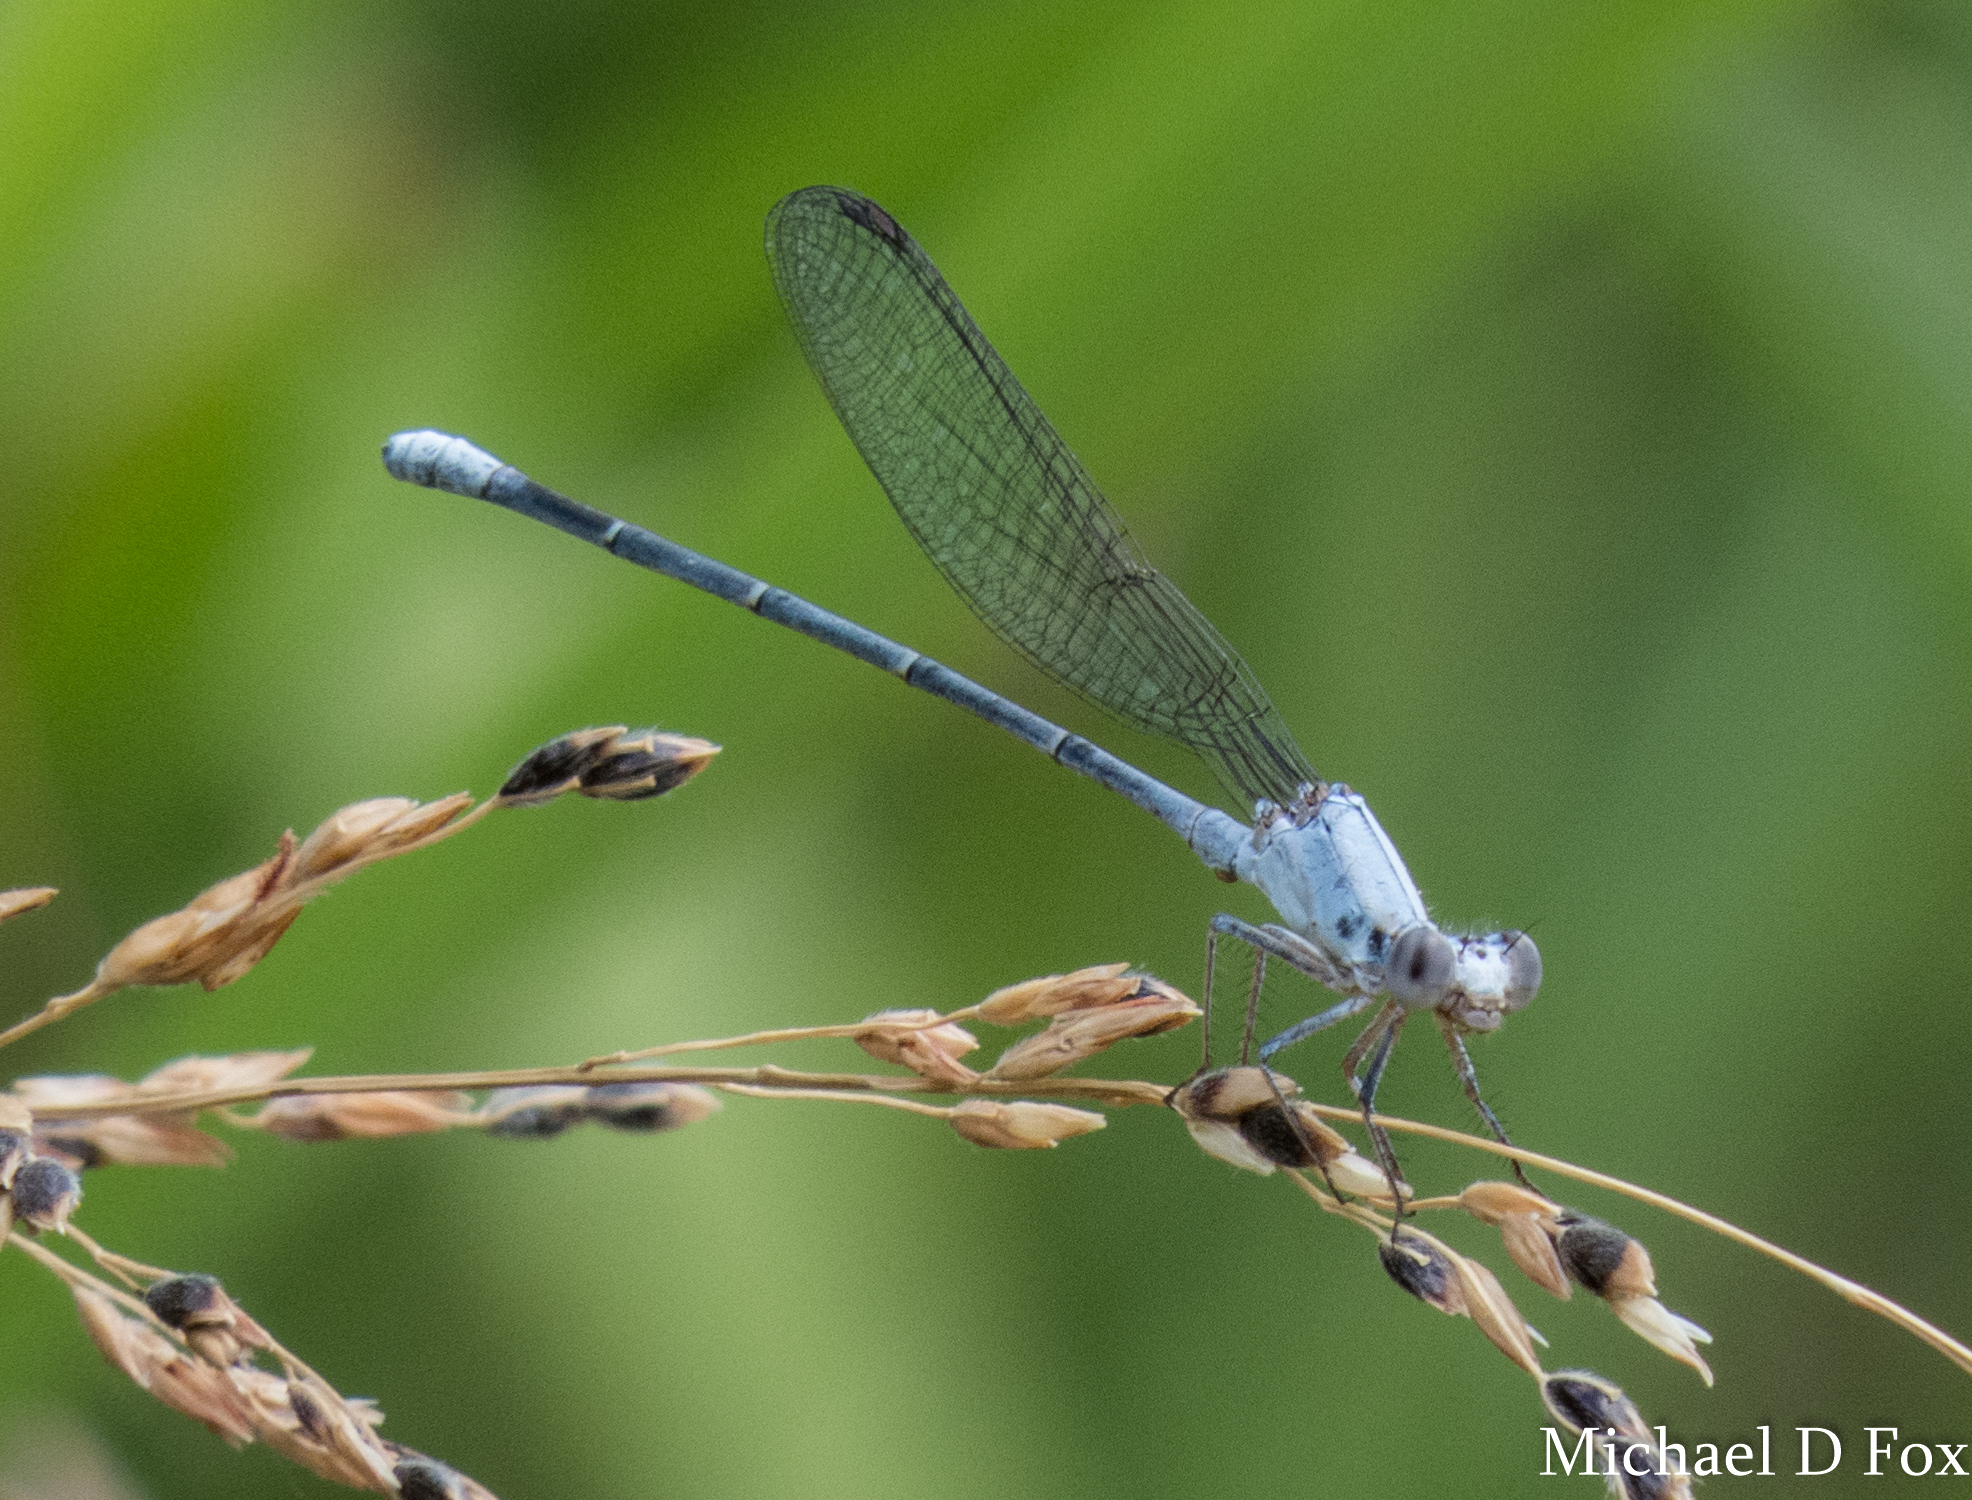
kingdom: Animalia
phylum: Arthropoda
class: Insecta
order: Odonata
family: Coenagrionidae
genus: Argia
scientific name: Argia moesta
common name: Powdered dancer
